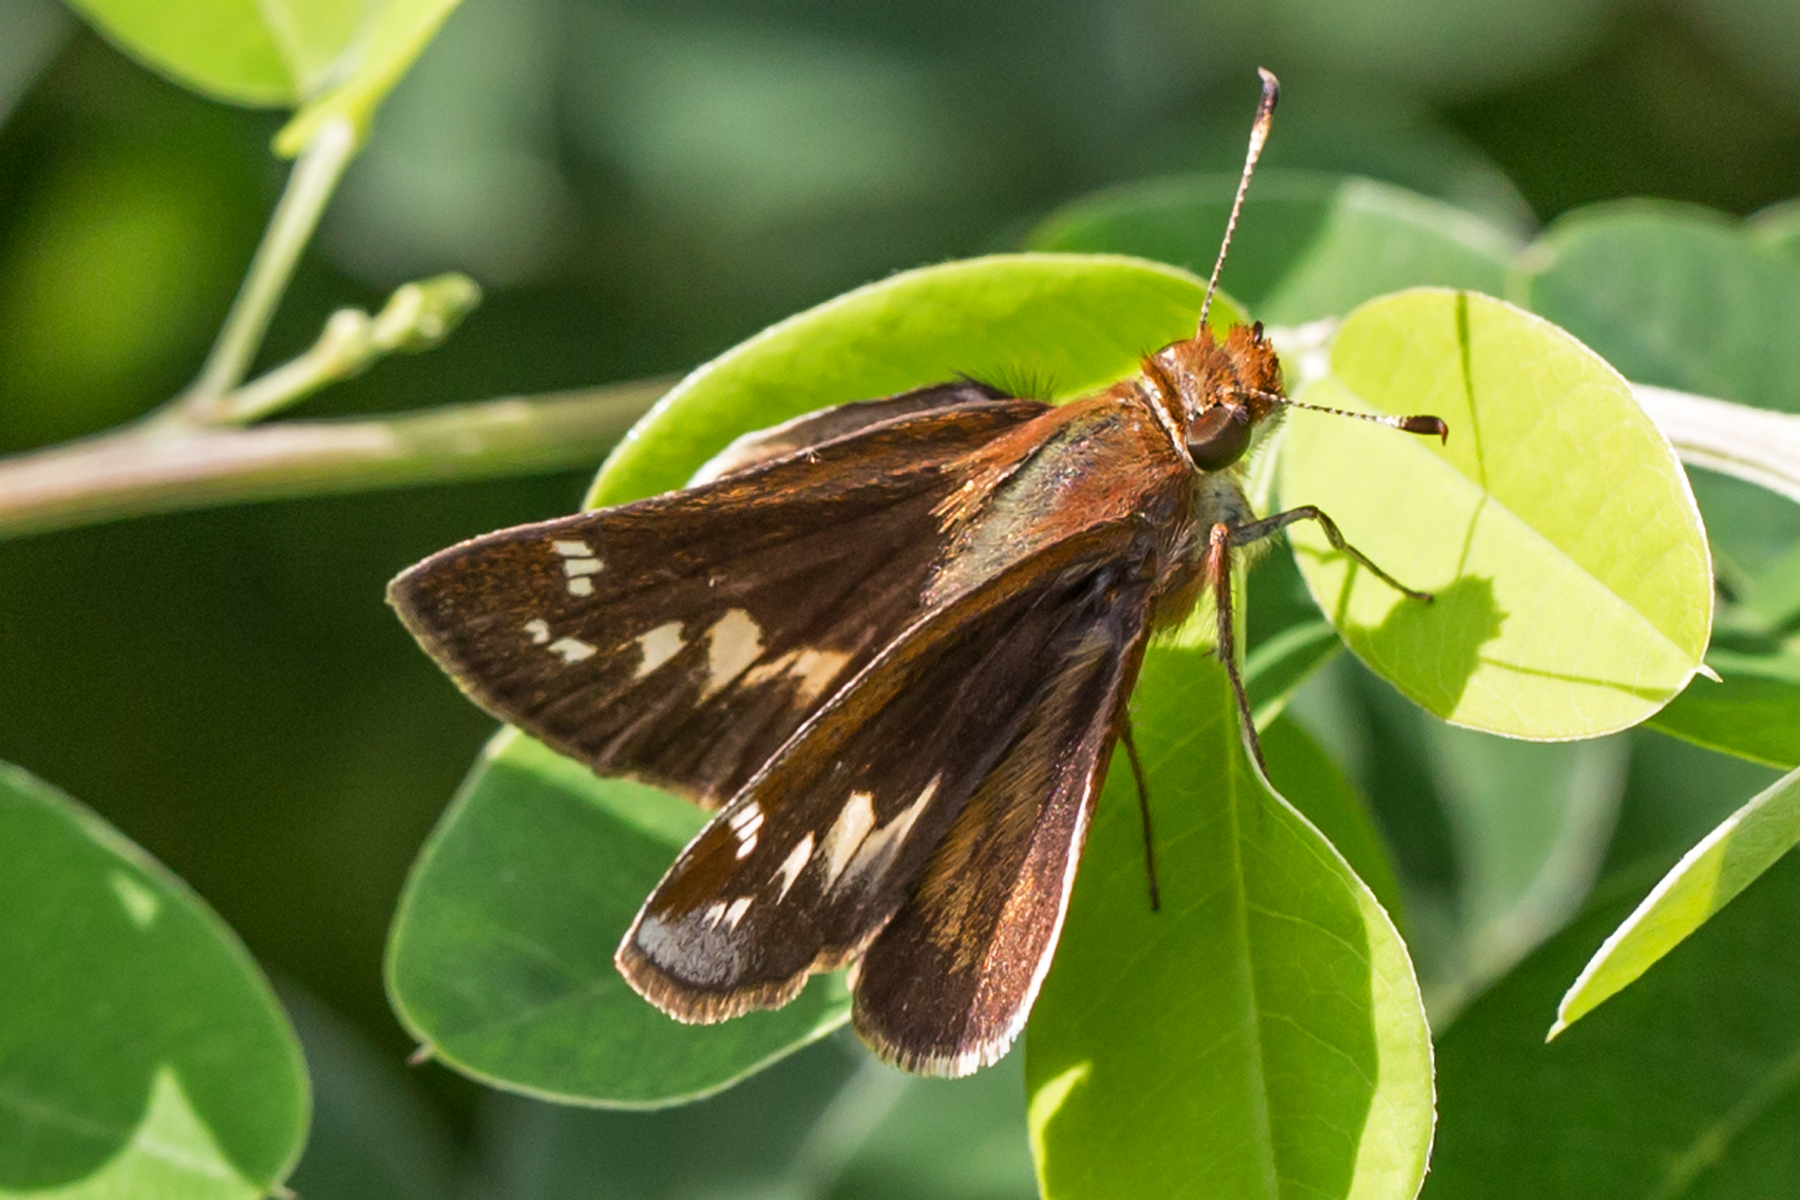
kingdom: Animalia
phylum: Arthropoda
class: Insecta
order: Lepidoptera
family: Hesperiidae
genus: Lon
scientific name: Lon zabulon
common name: Zabulon skipper
